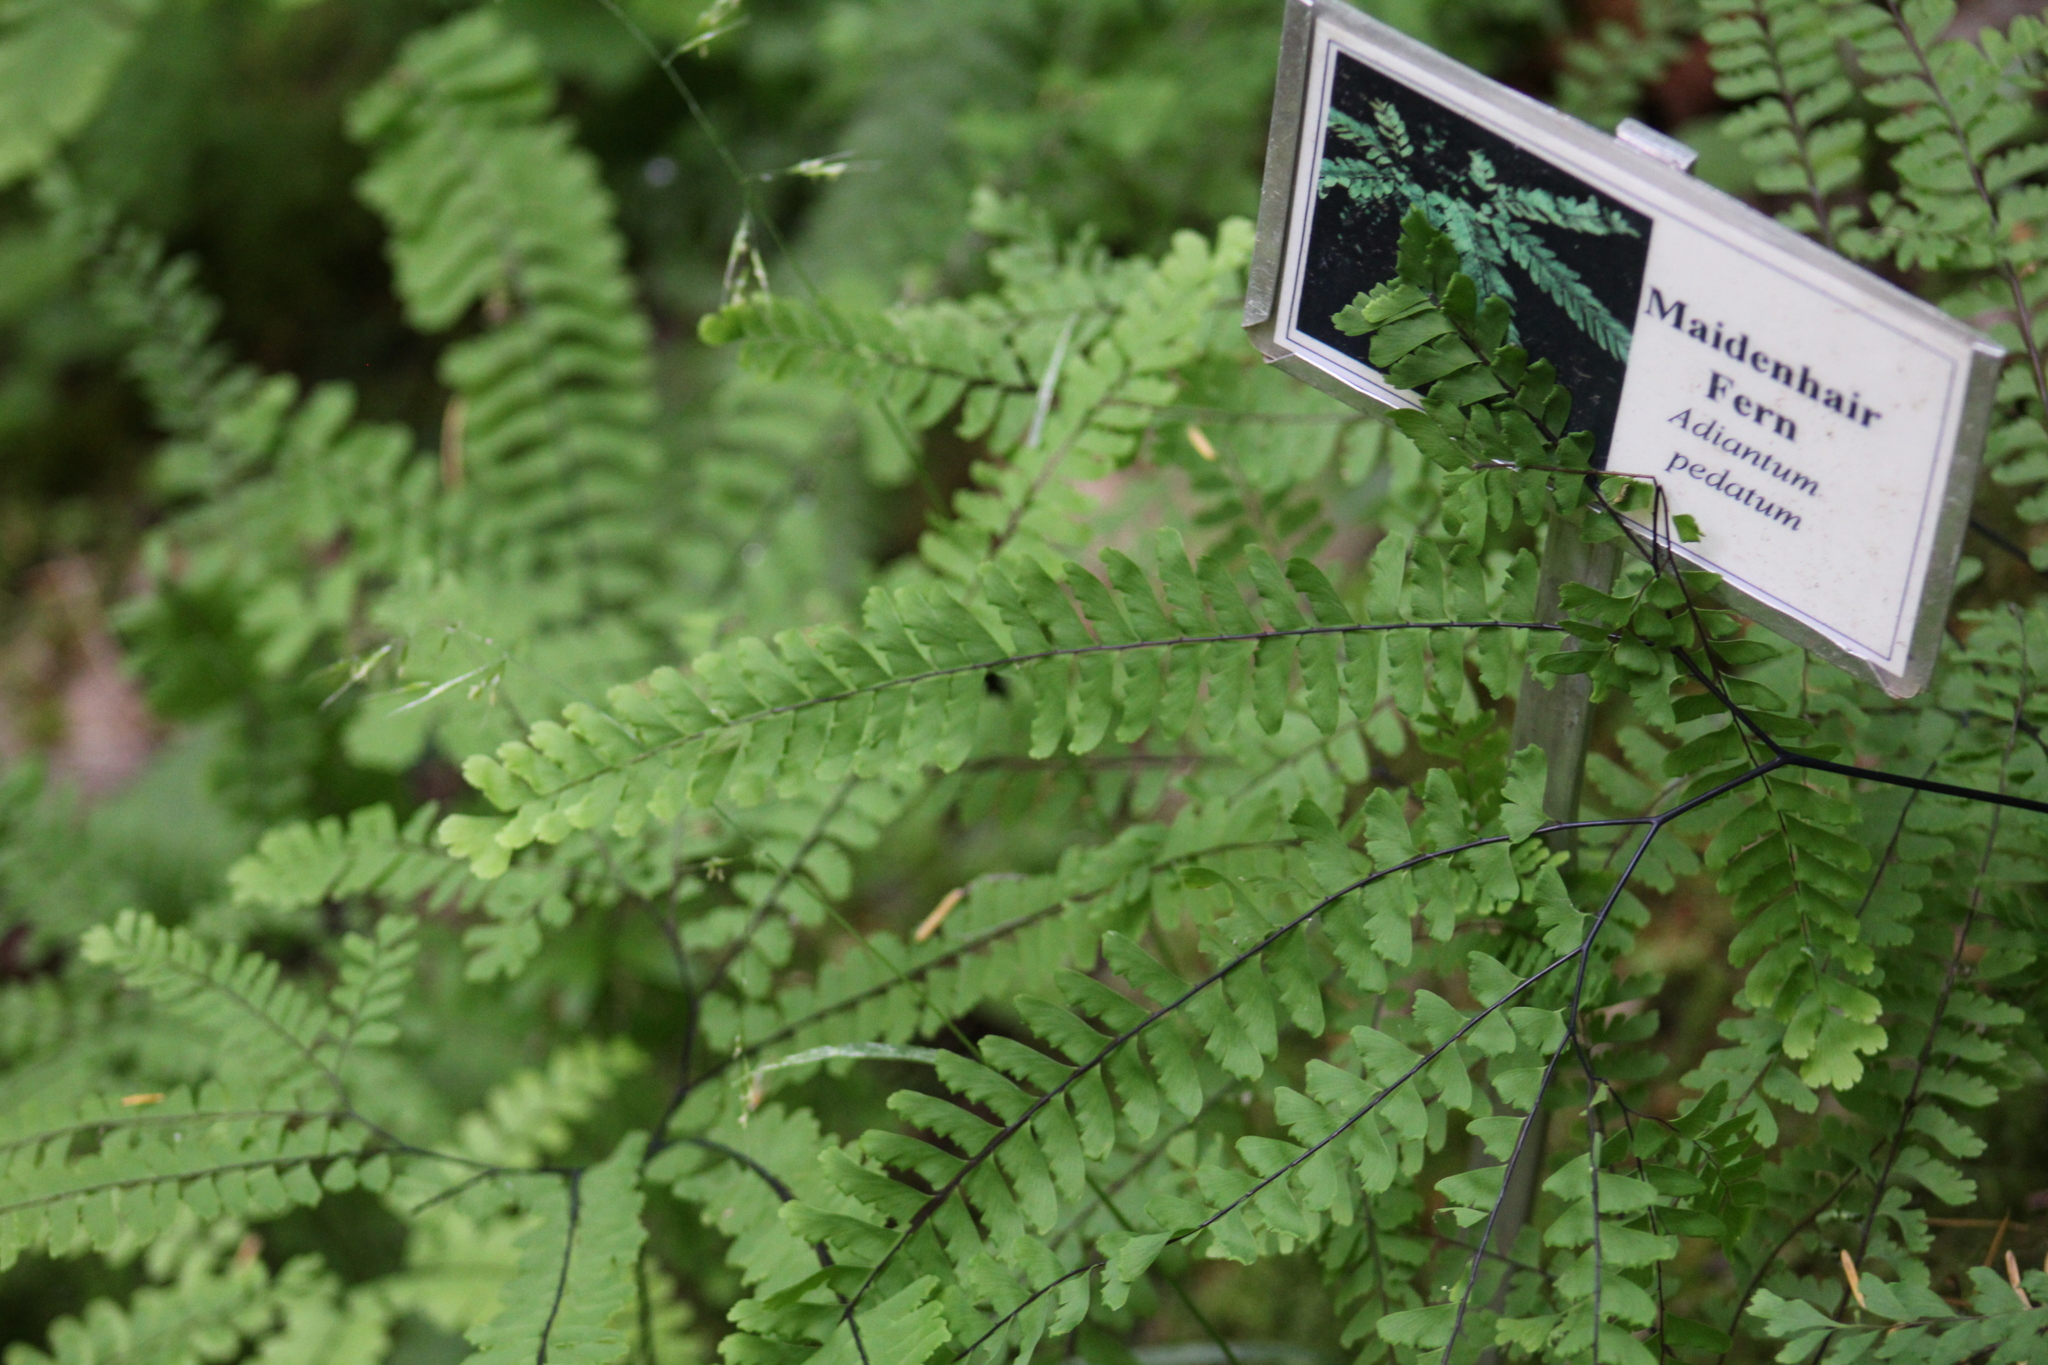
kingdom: Plantae
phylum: Tracheophyta
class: Polypodiopsida
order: Polypodiales
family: Pteridaceae
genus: Adiantum
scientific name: Adiantum aleuticum
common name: Aleutian maidenhair fern
